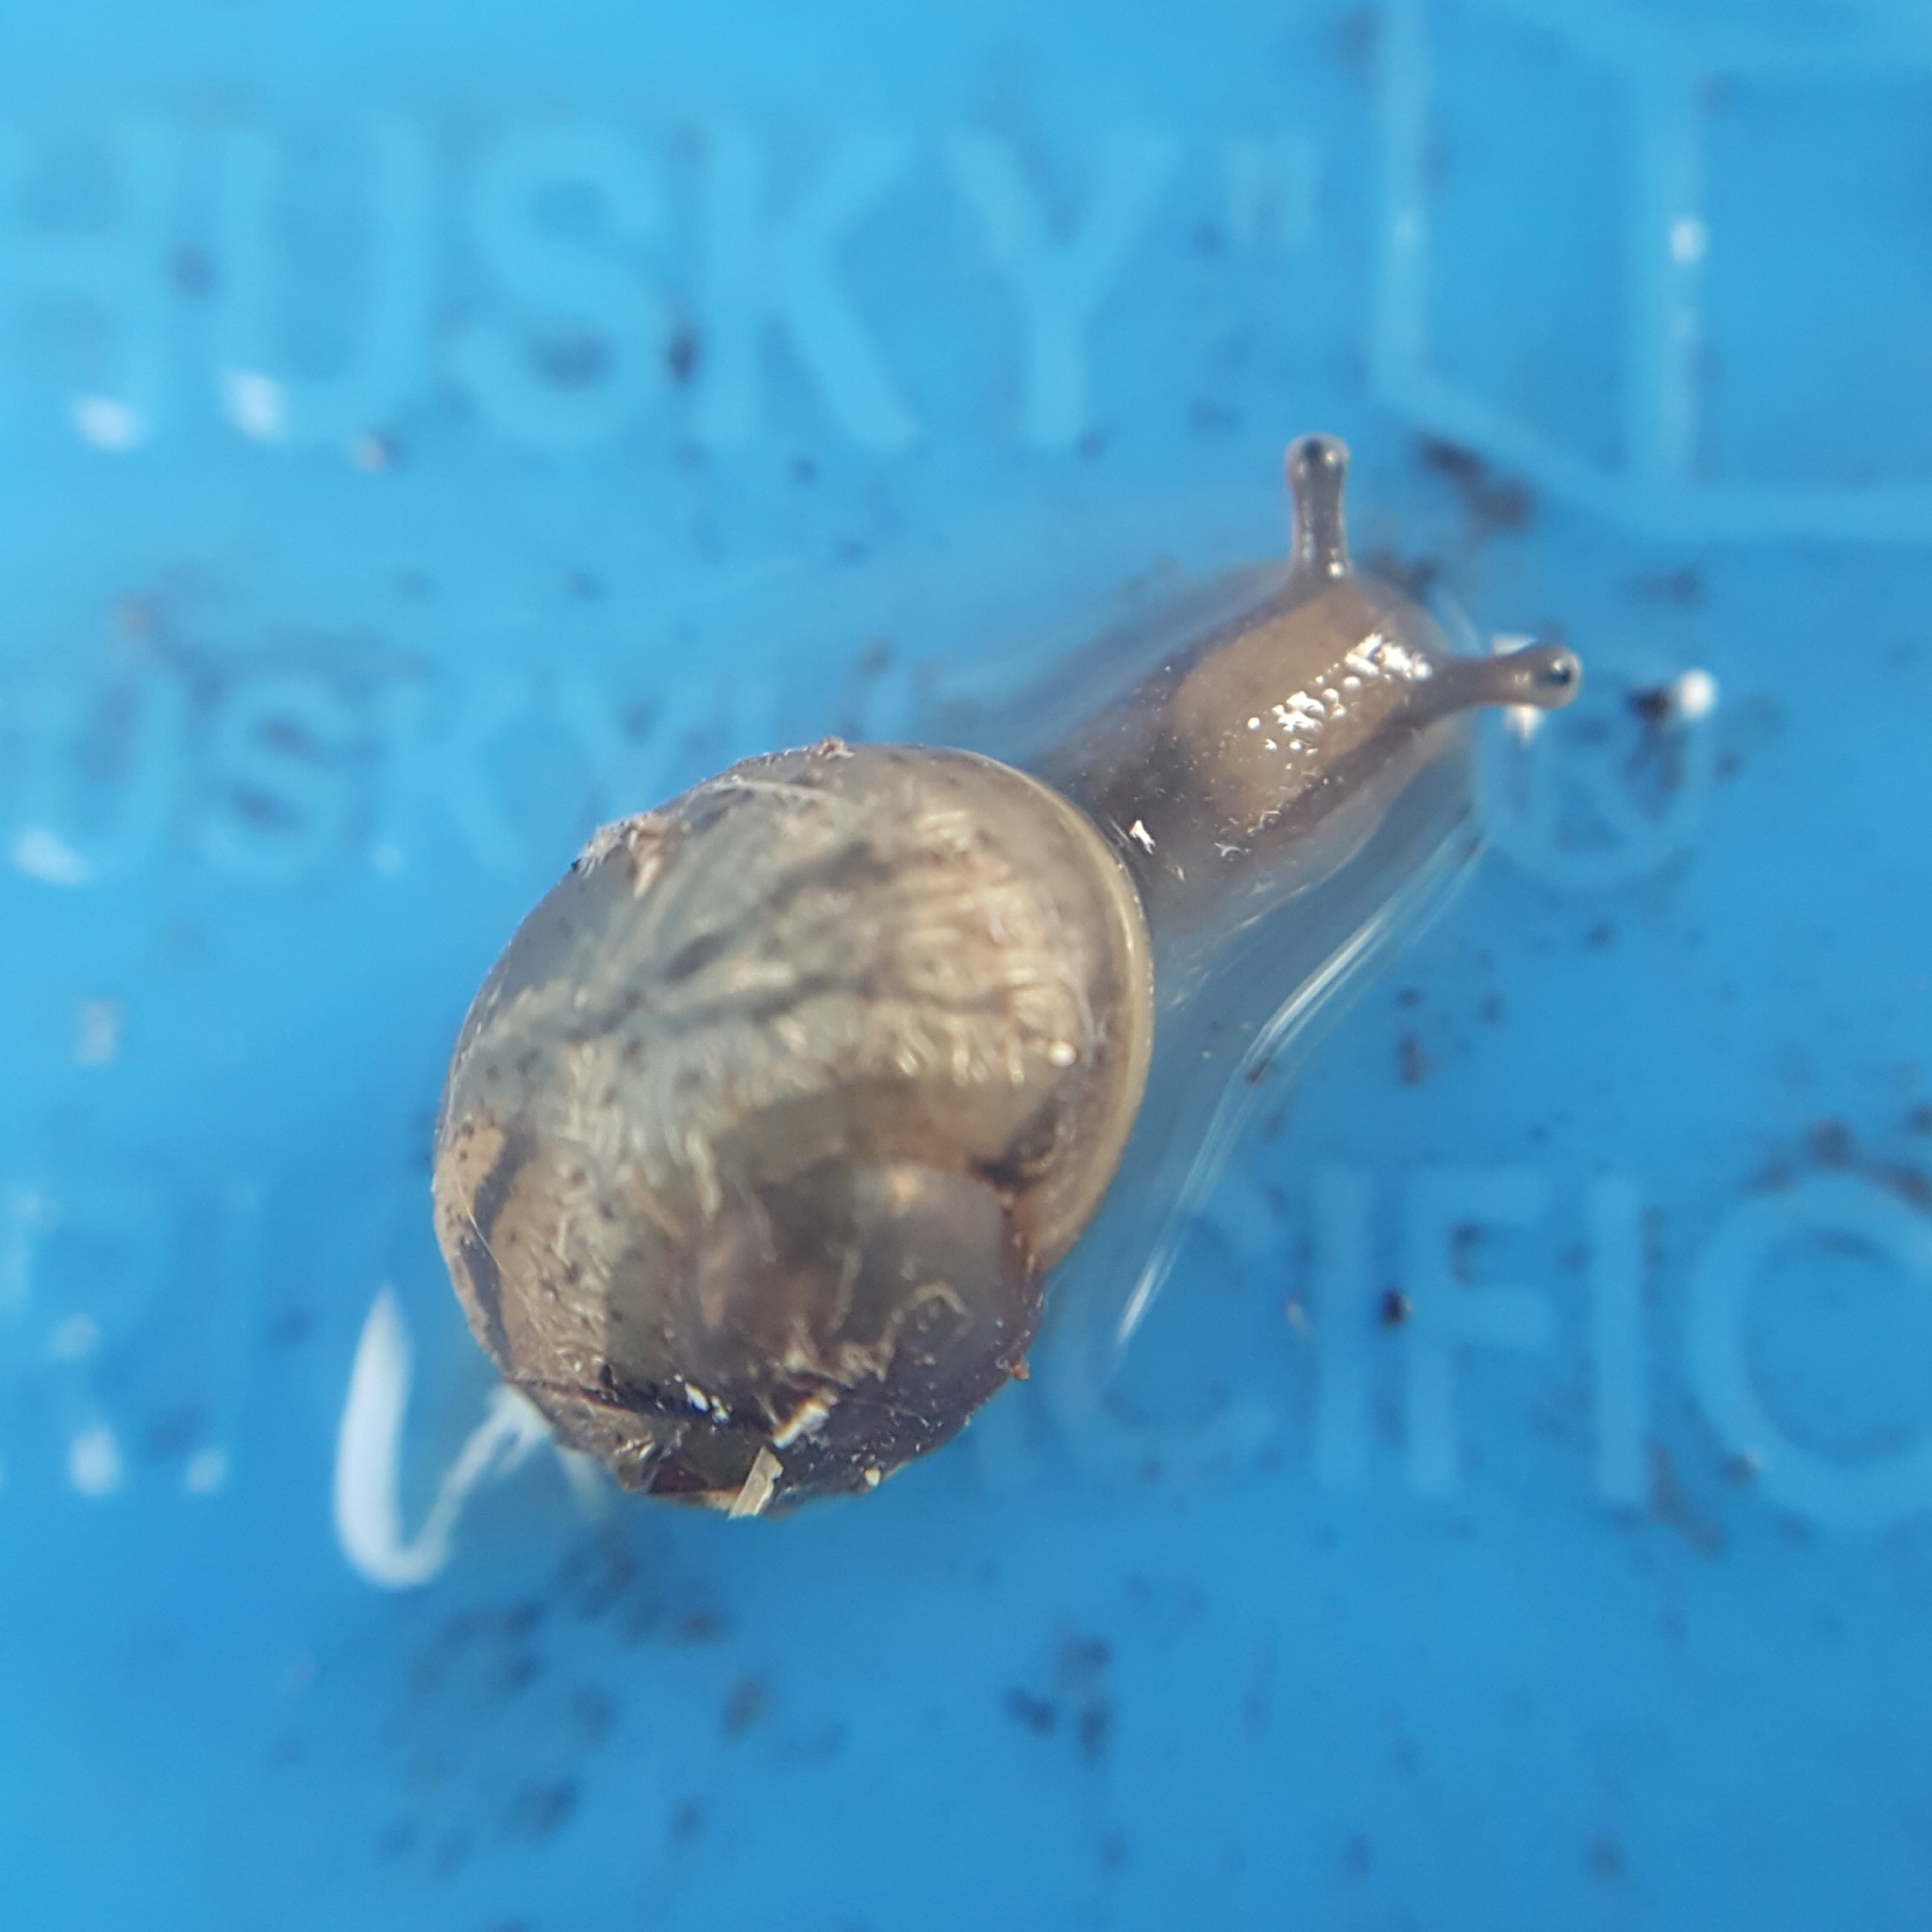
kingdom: Animalia
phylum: Mollusca
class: Gastropoda
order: Stylommatophora
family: Helicidae
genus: Cornu
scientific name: Cornu aspersum
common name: Brown garden snail
